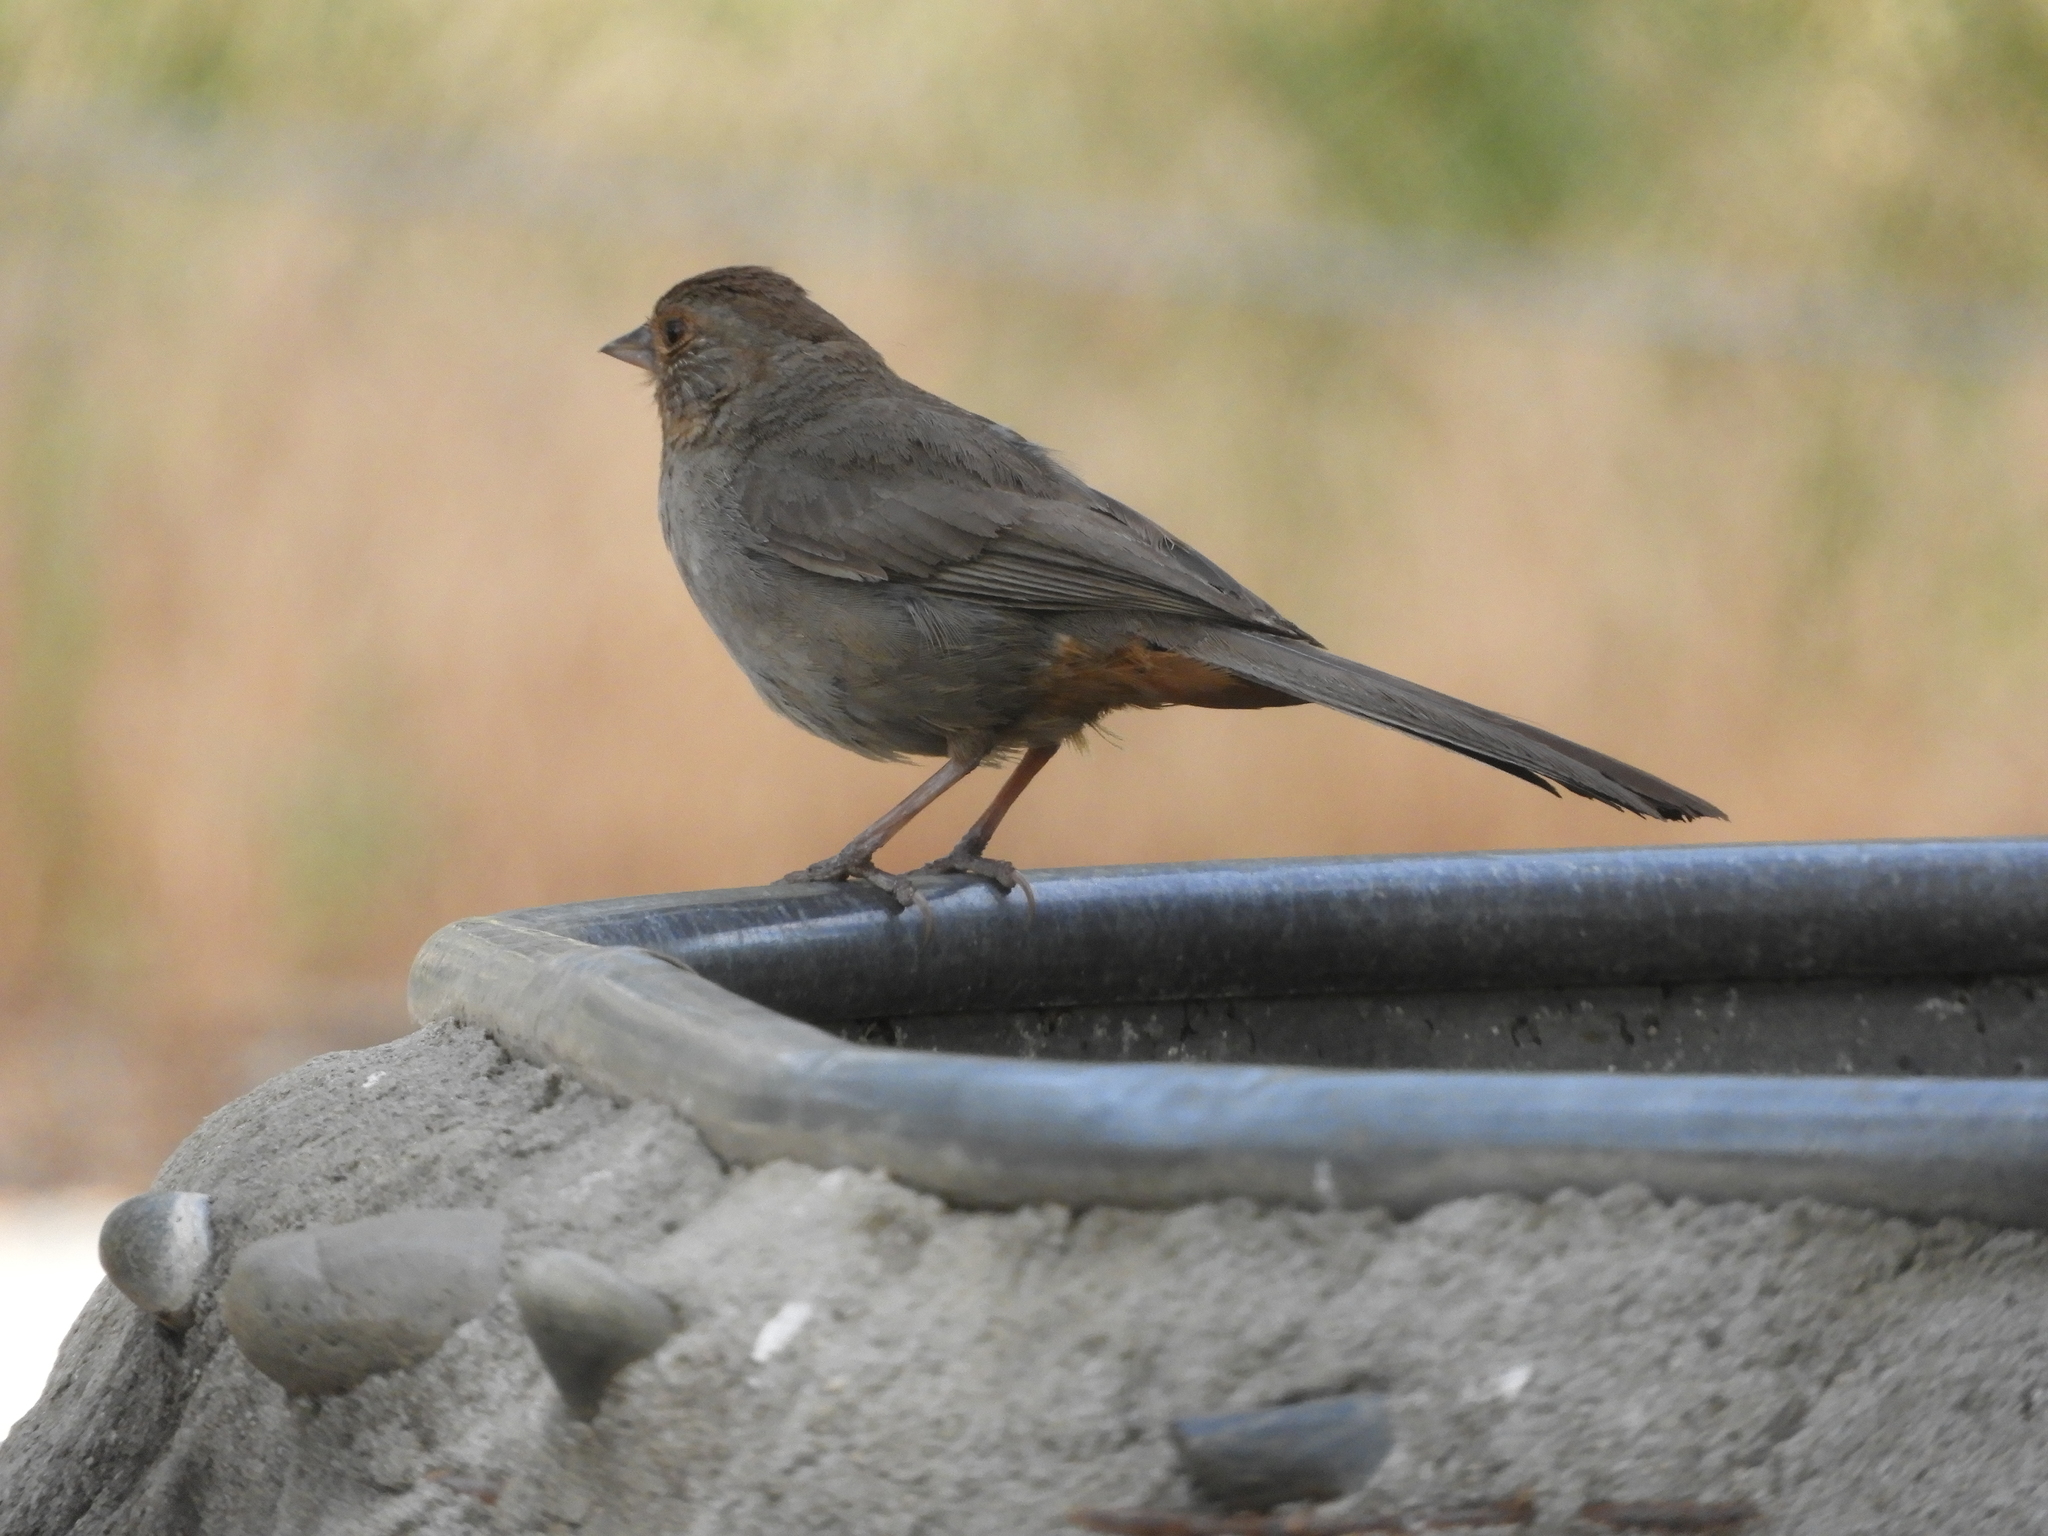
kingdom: Animalia
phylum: Chordata
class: Aves
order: Passeriformes
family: Passerellidae
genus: Melozone
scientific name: Melozone crissalis
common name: California towhee
